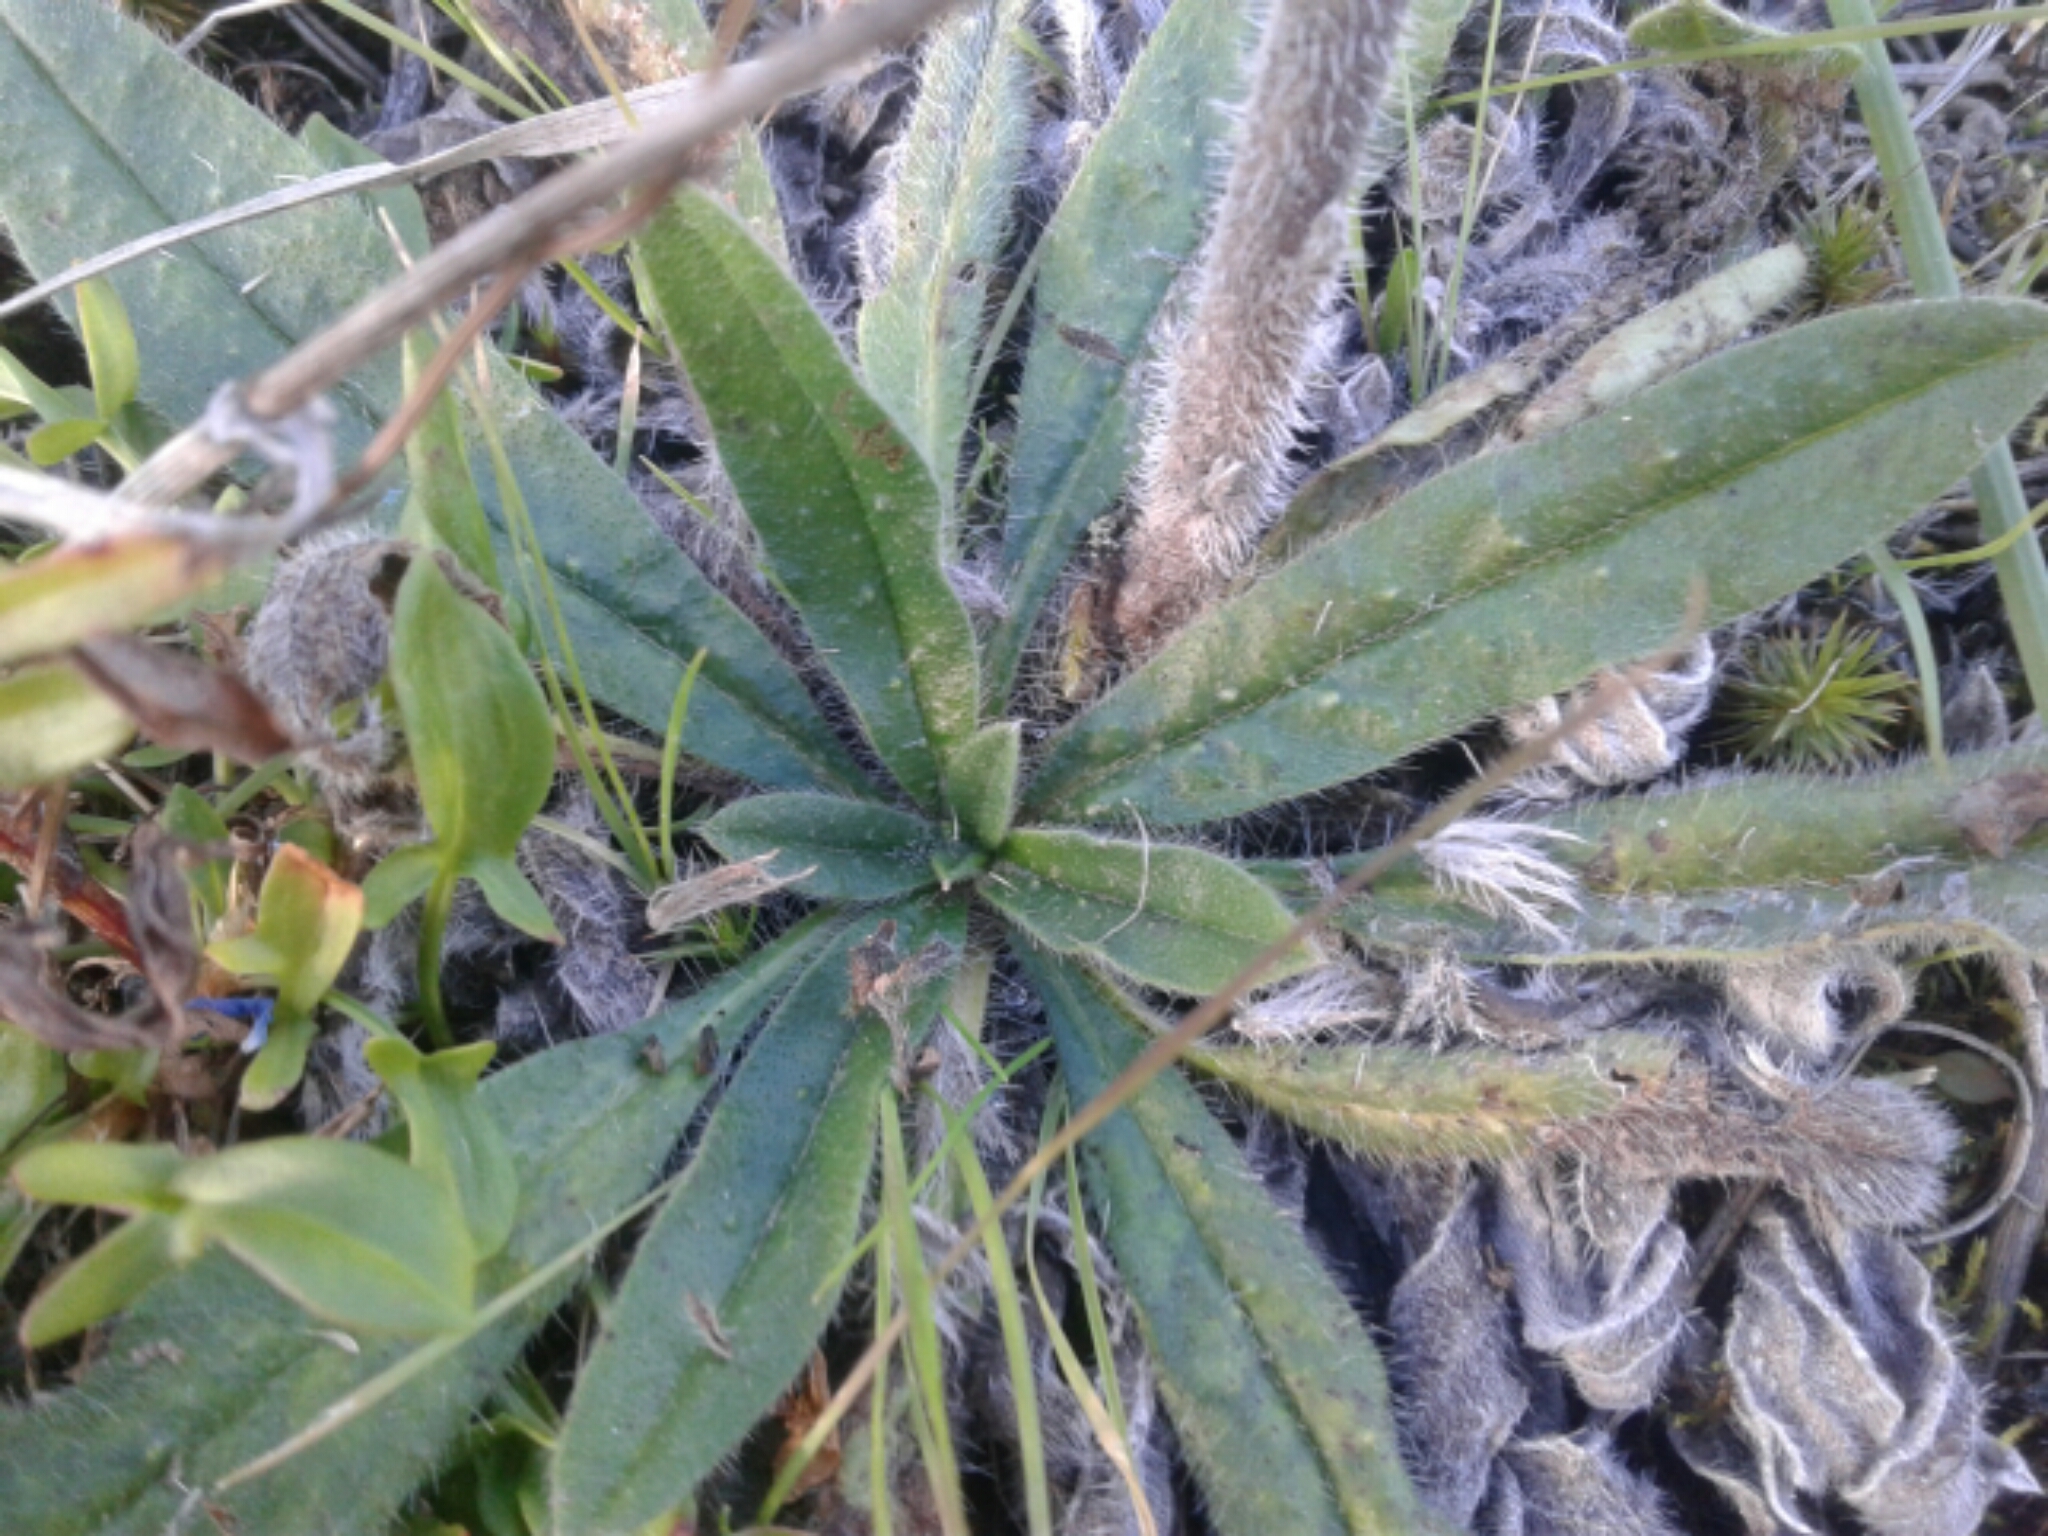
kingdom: Plantae
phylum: Tracheophyta
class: Magnoliopsida
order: Boraginales
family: Boraginaceae
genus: Echium
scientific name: Echium vulgare
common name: Common viper's bugloss
